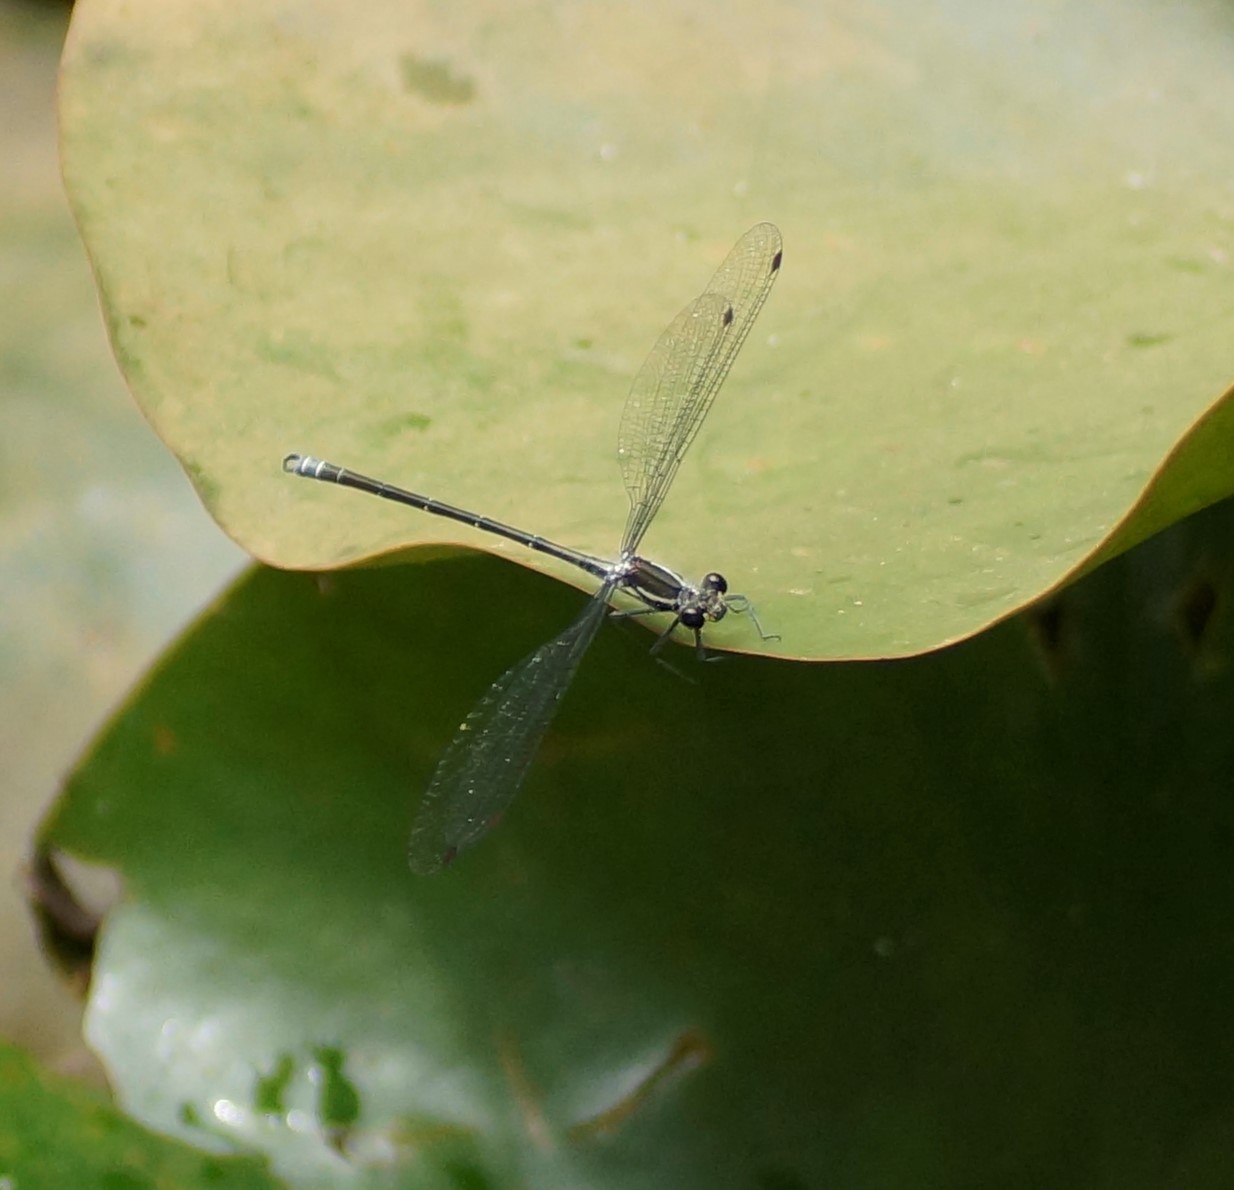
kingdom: Animalia
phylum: Arthropoda
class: Insecta
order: Odonata
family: Argiolestidae
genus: Austroargiolestes
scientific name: Austroargiolestes icteromelas
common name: Common flatwing
